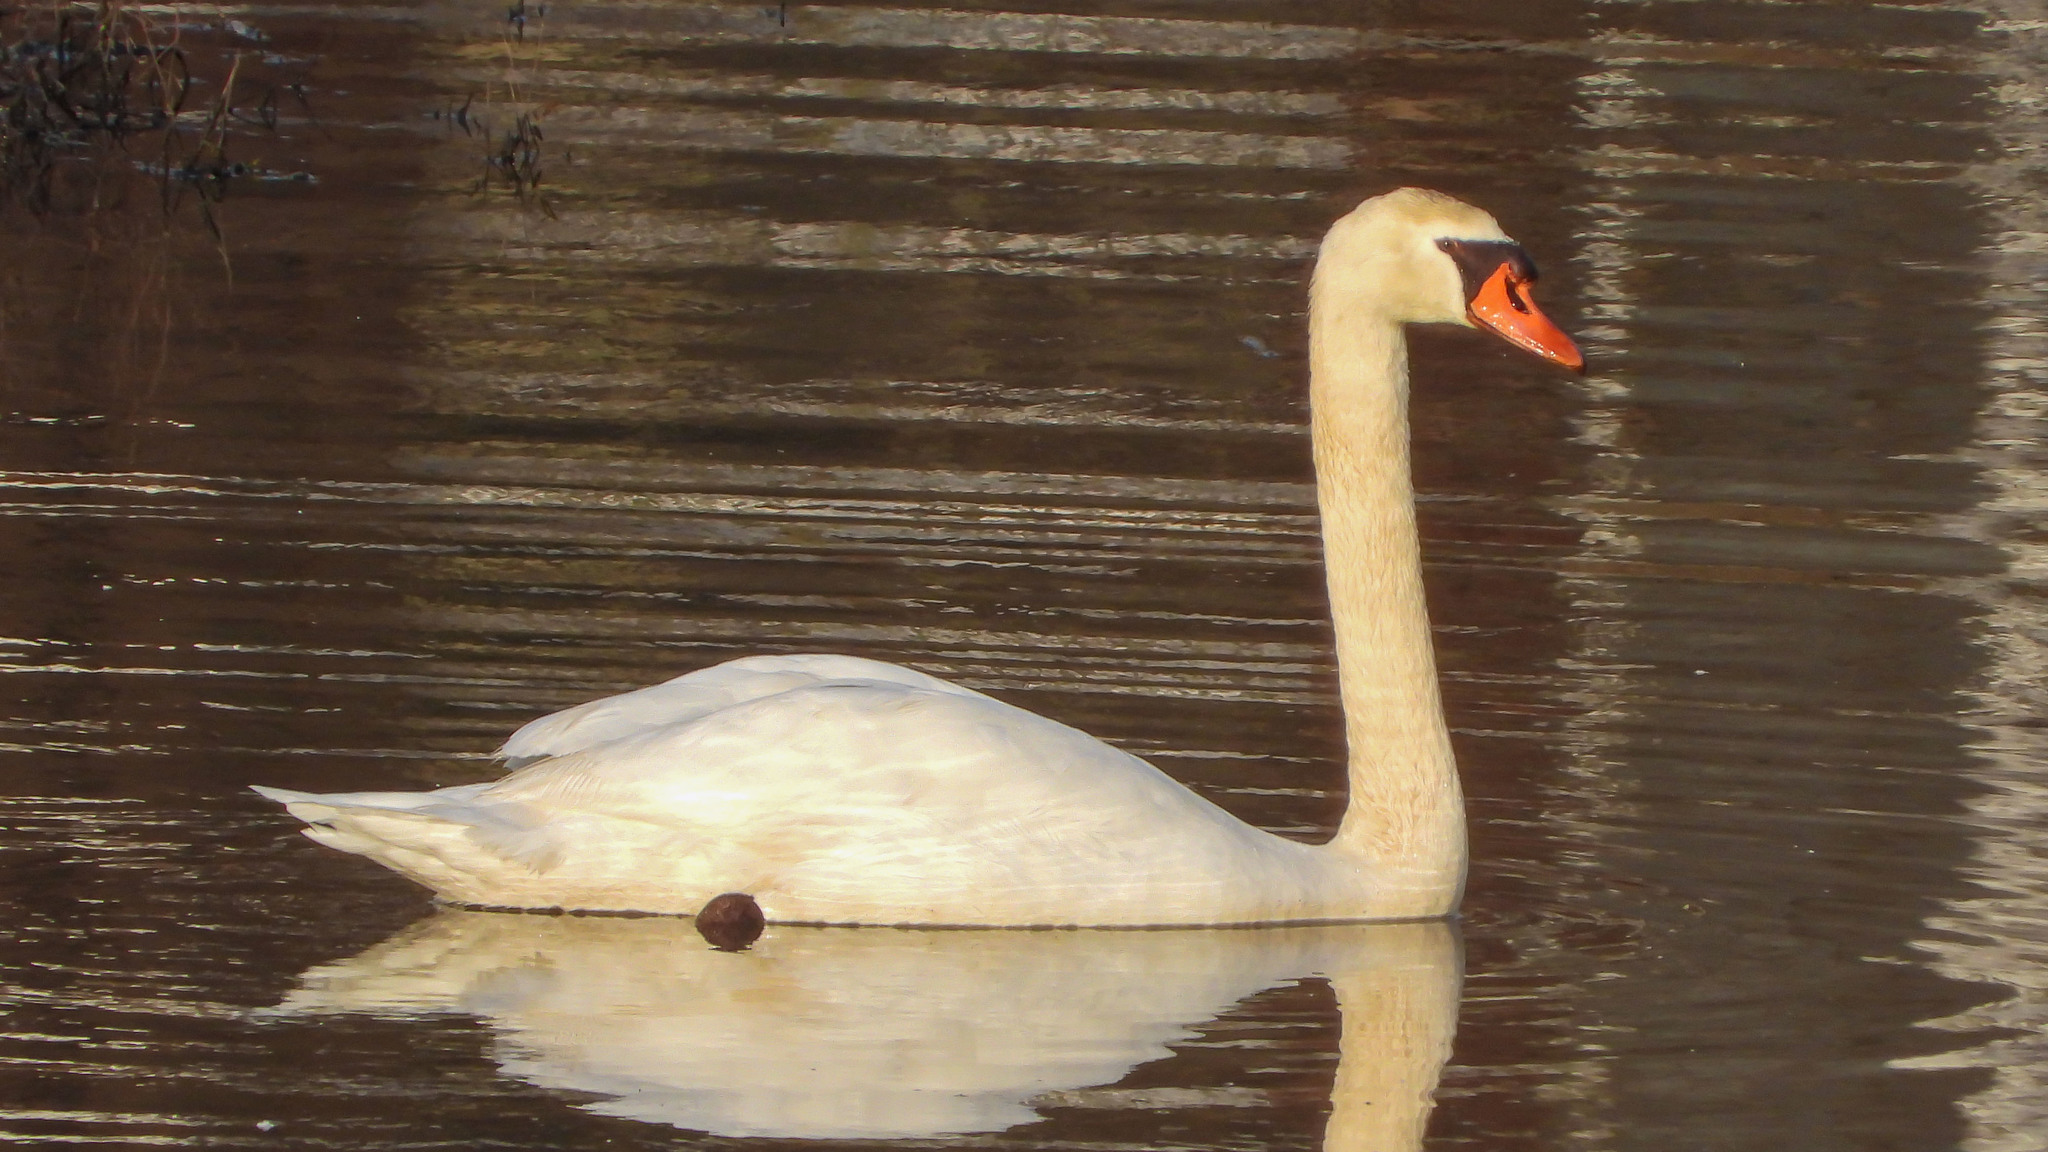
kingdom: Animalia
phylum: Chordata
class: Aves
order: Anseriformes
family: Anatidae
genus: Cygnus
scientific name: Cygnus olor
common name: Mute swan
